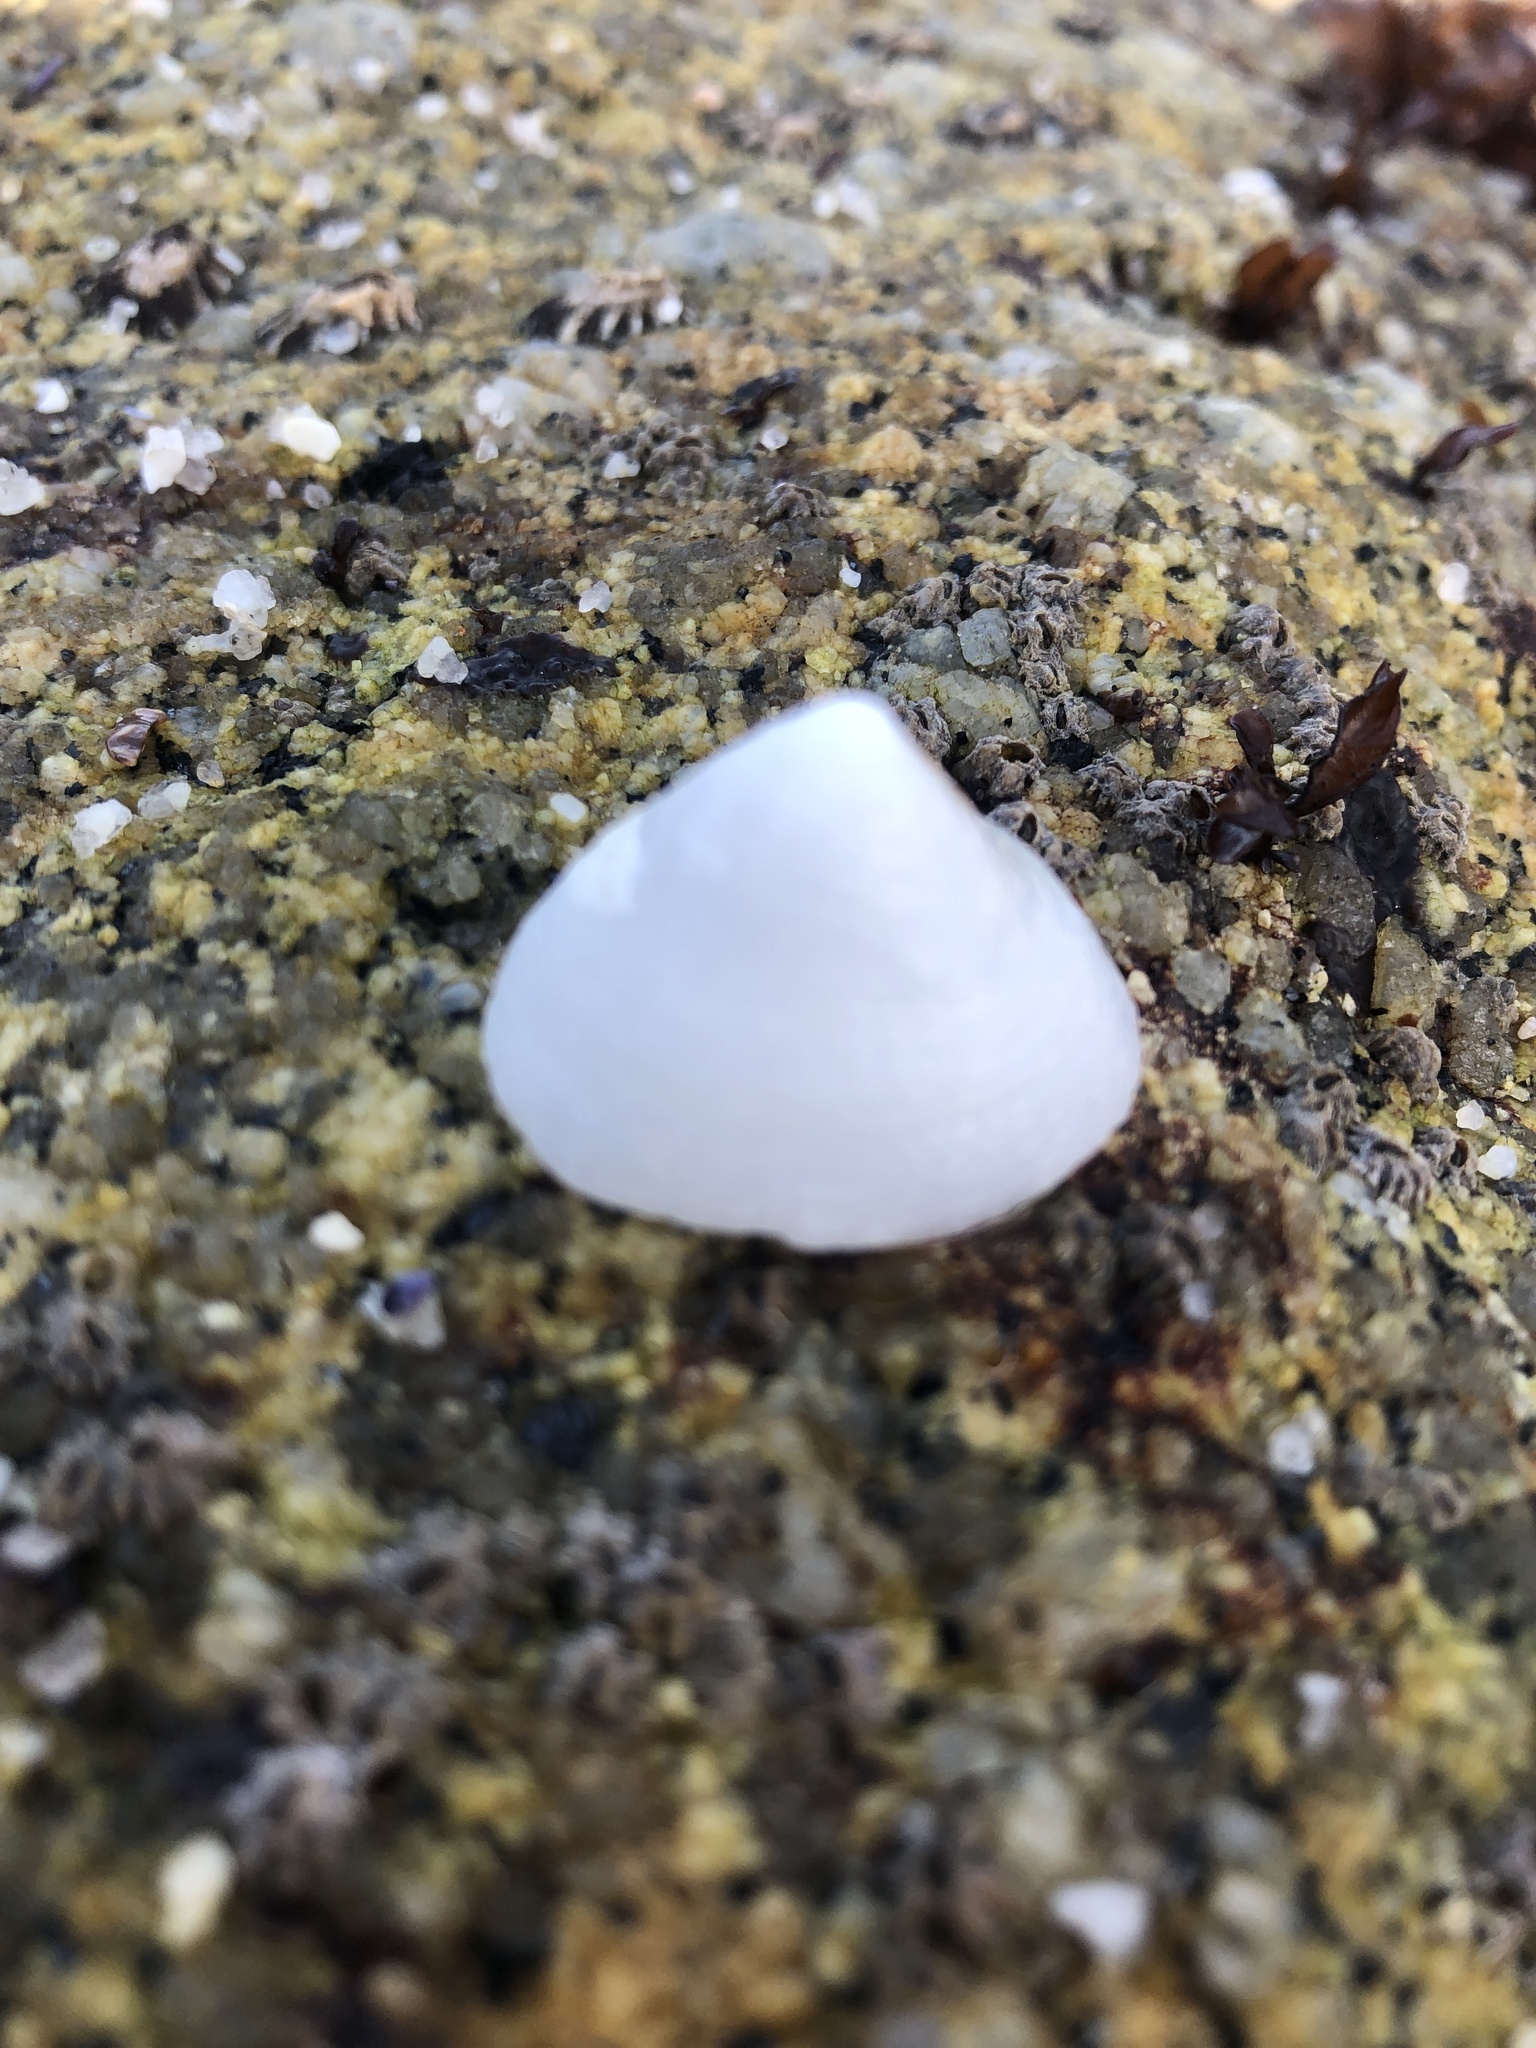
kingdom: Animalia
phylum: Mollusca
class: Gastropoda
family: Acmaeidae
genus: Acmaea
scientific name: Acmaea mitra
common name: Pacific white cap limpet
